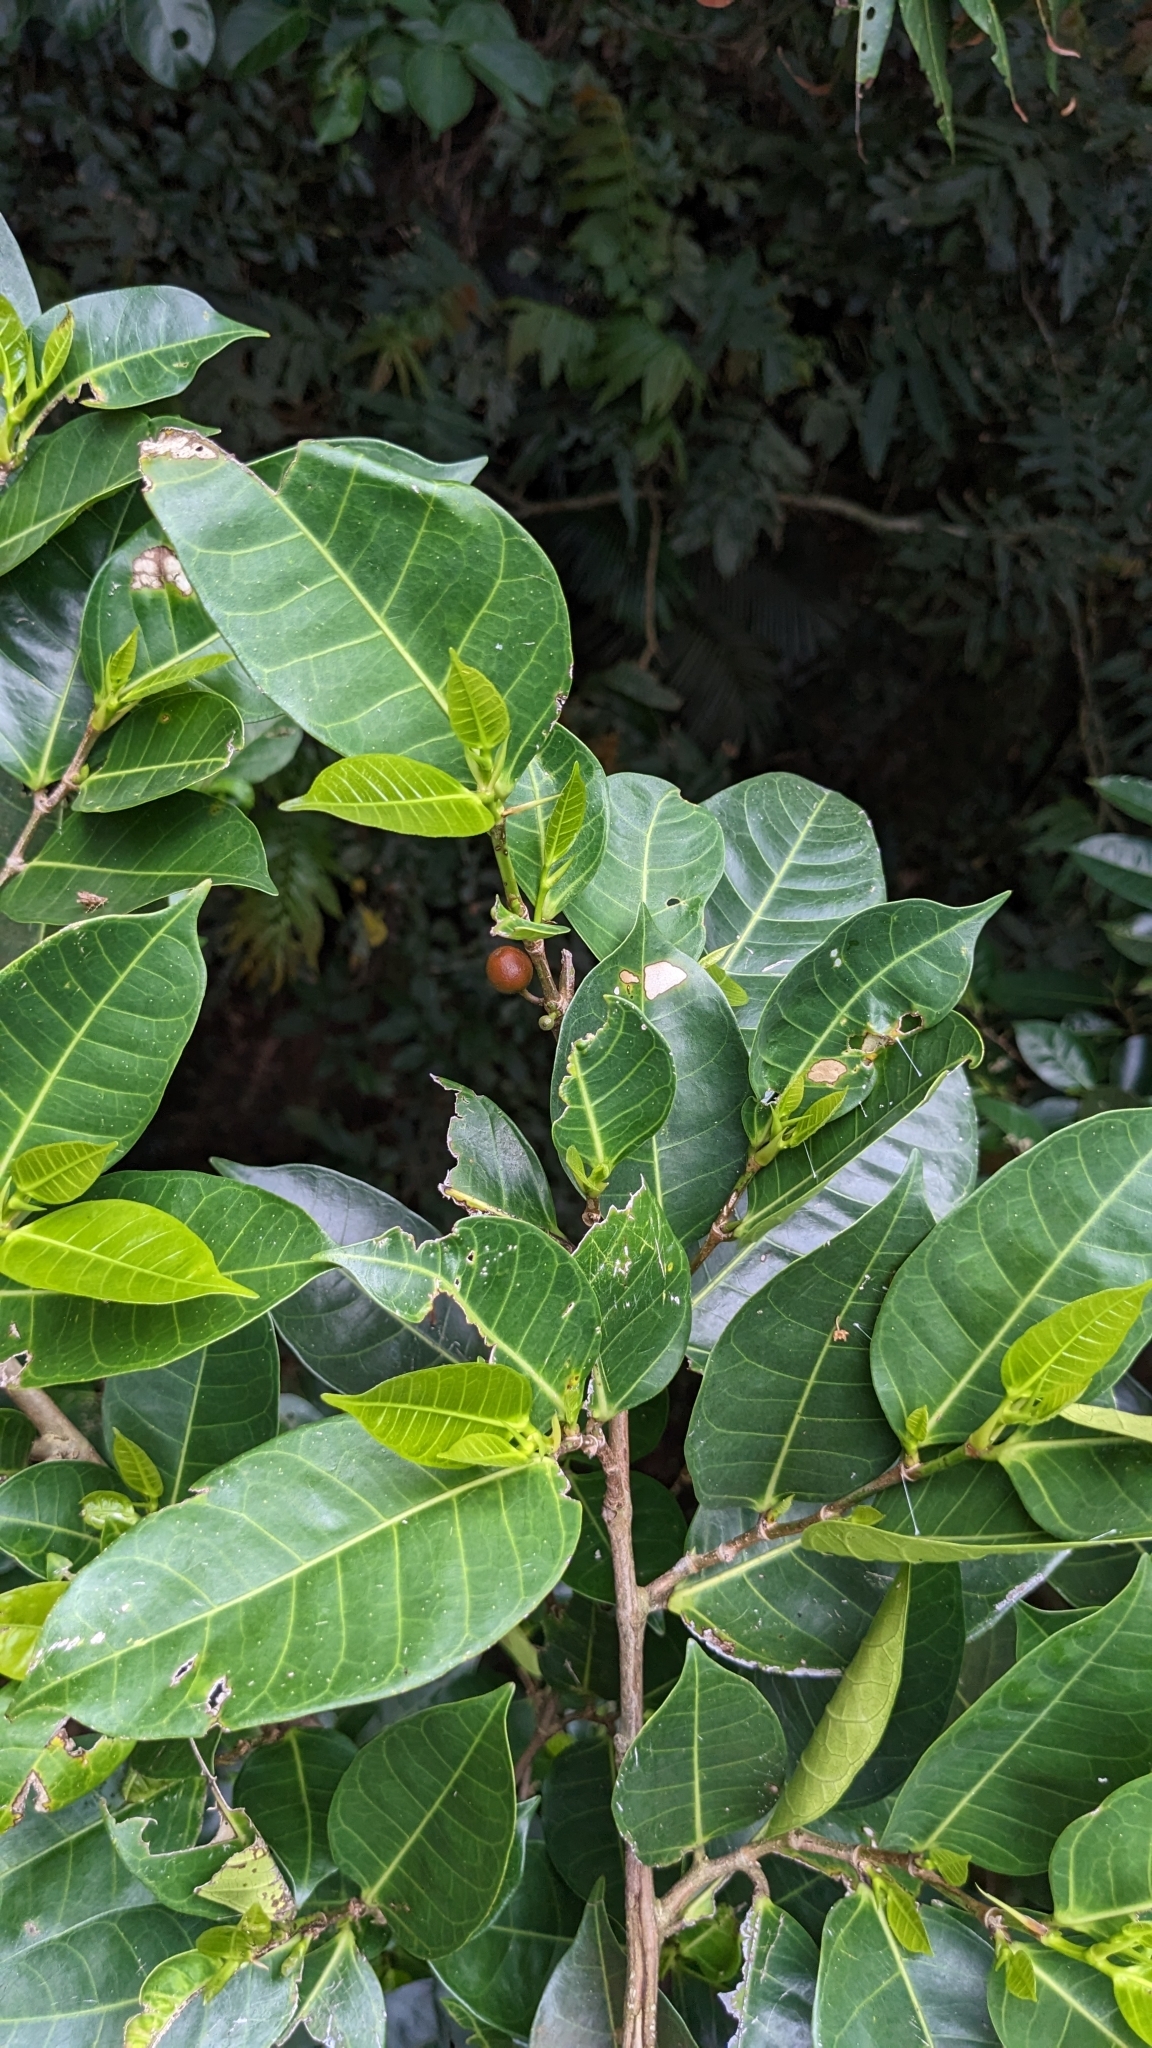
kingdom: Plantae
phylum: Tracheophyta
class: Magnoliopsida
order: Rosales
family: Moraceae
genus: Ficus
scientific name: Ficus virgata
